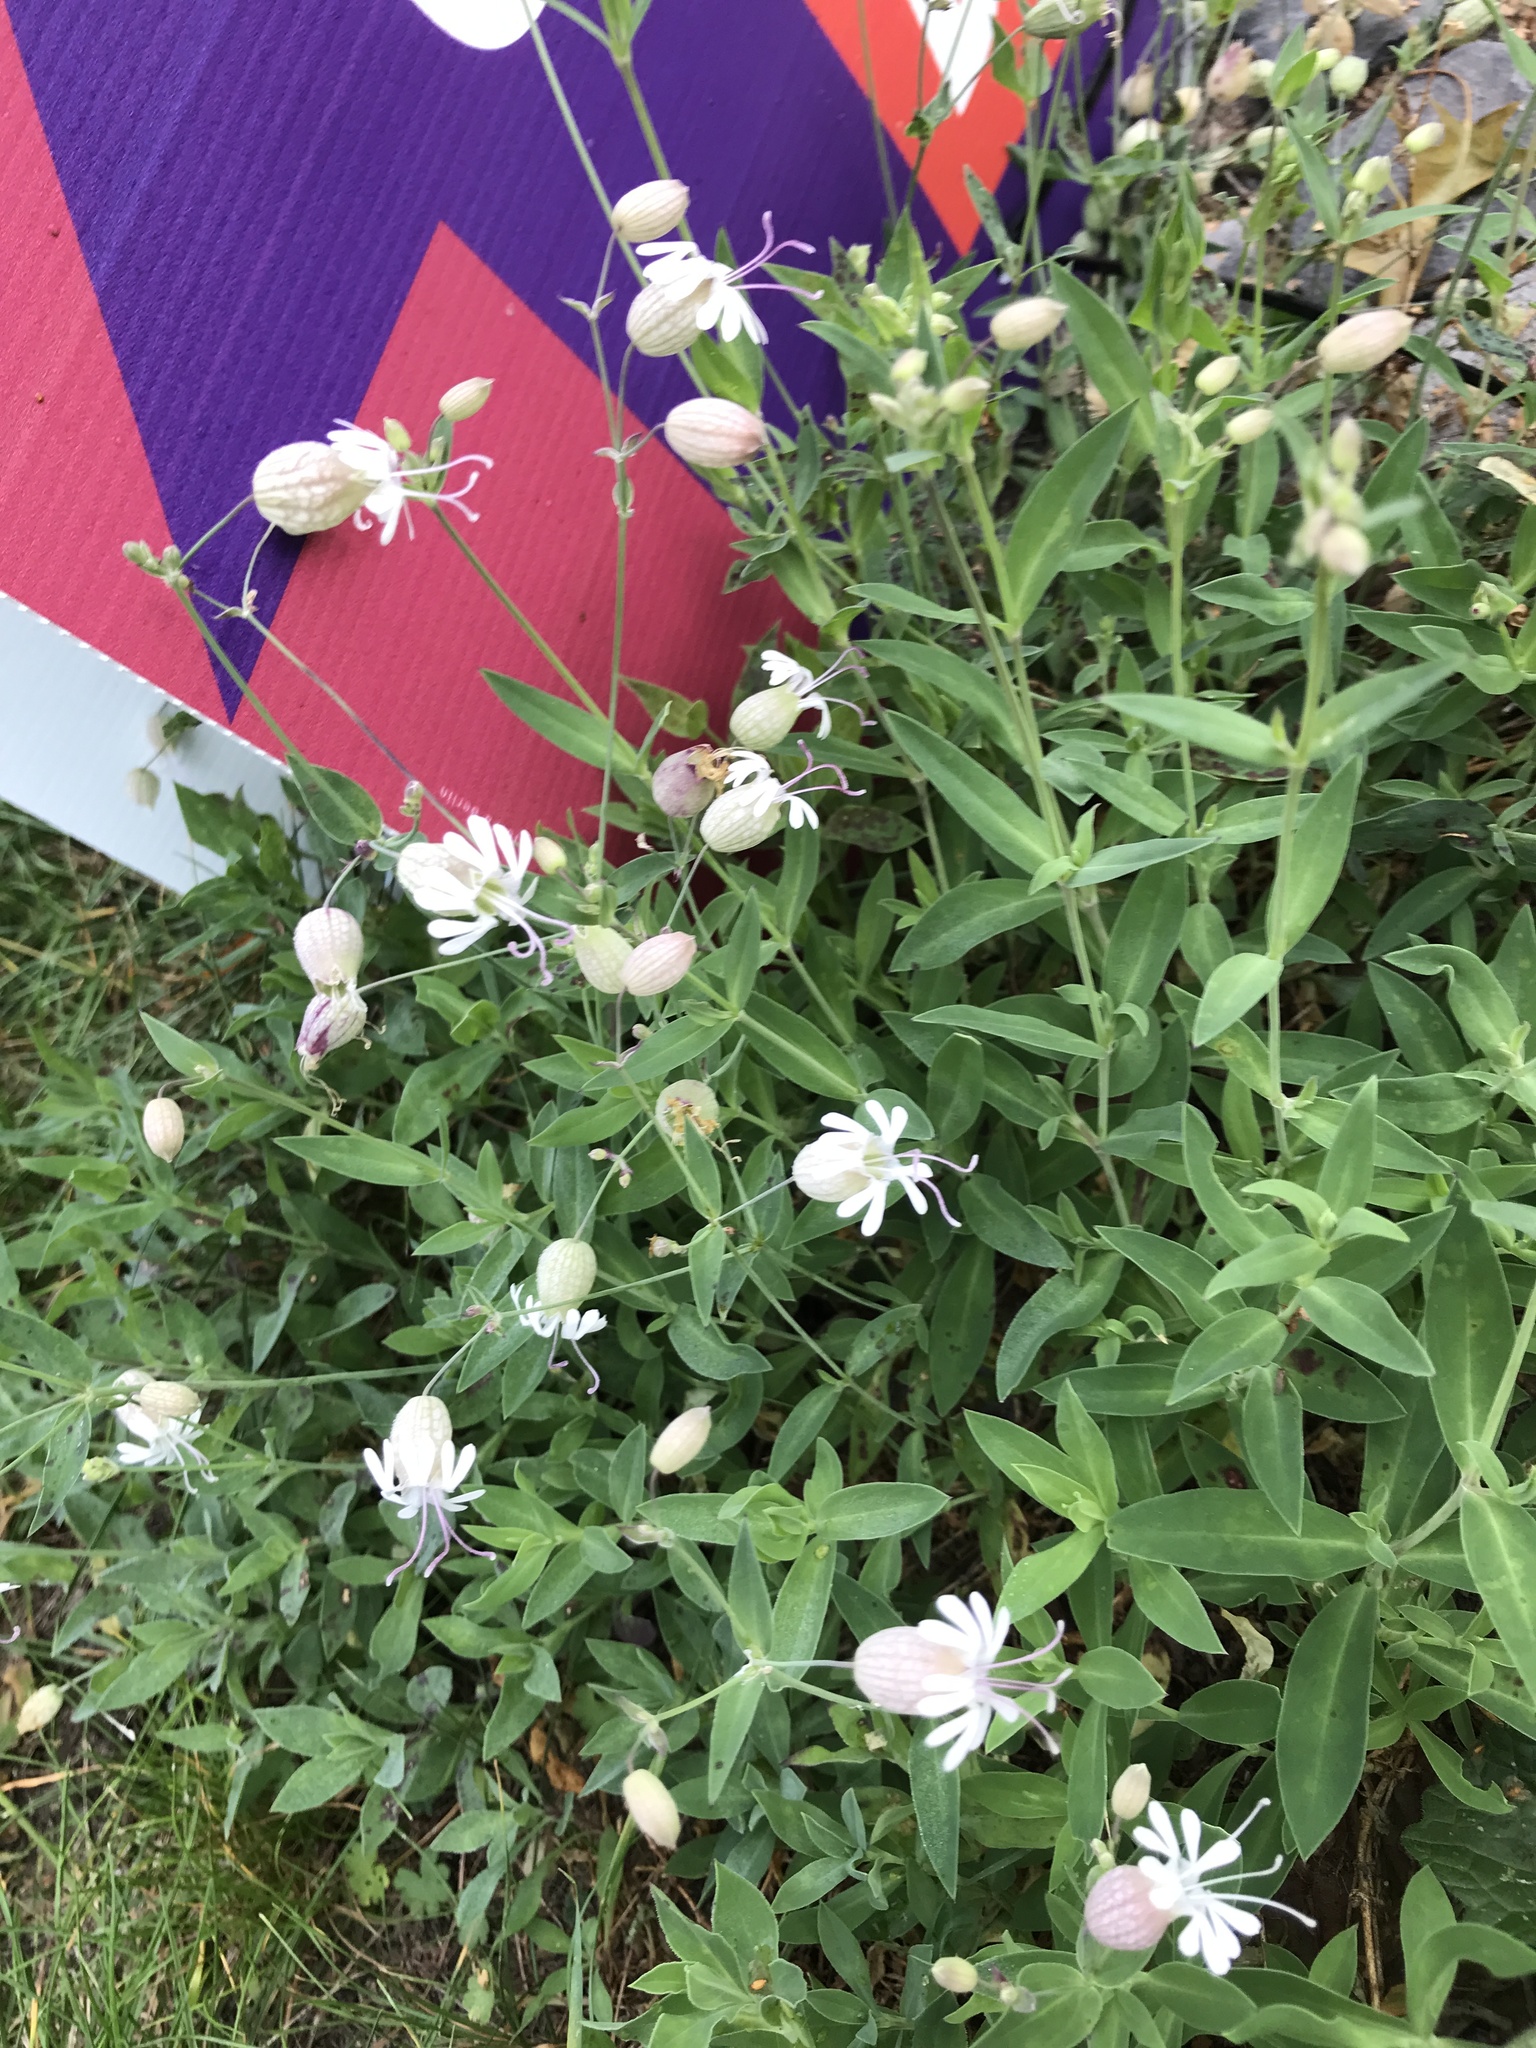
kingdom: Plantae
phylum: Tracheophyta
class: Magnoliopsida
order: Caryophyllales
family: Caryophyllaceae
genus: Silene
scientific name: Silene vulgaris
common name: Bladder campion
